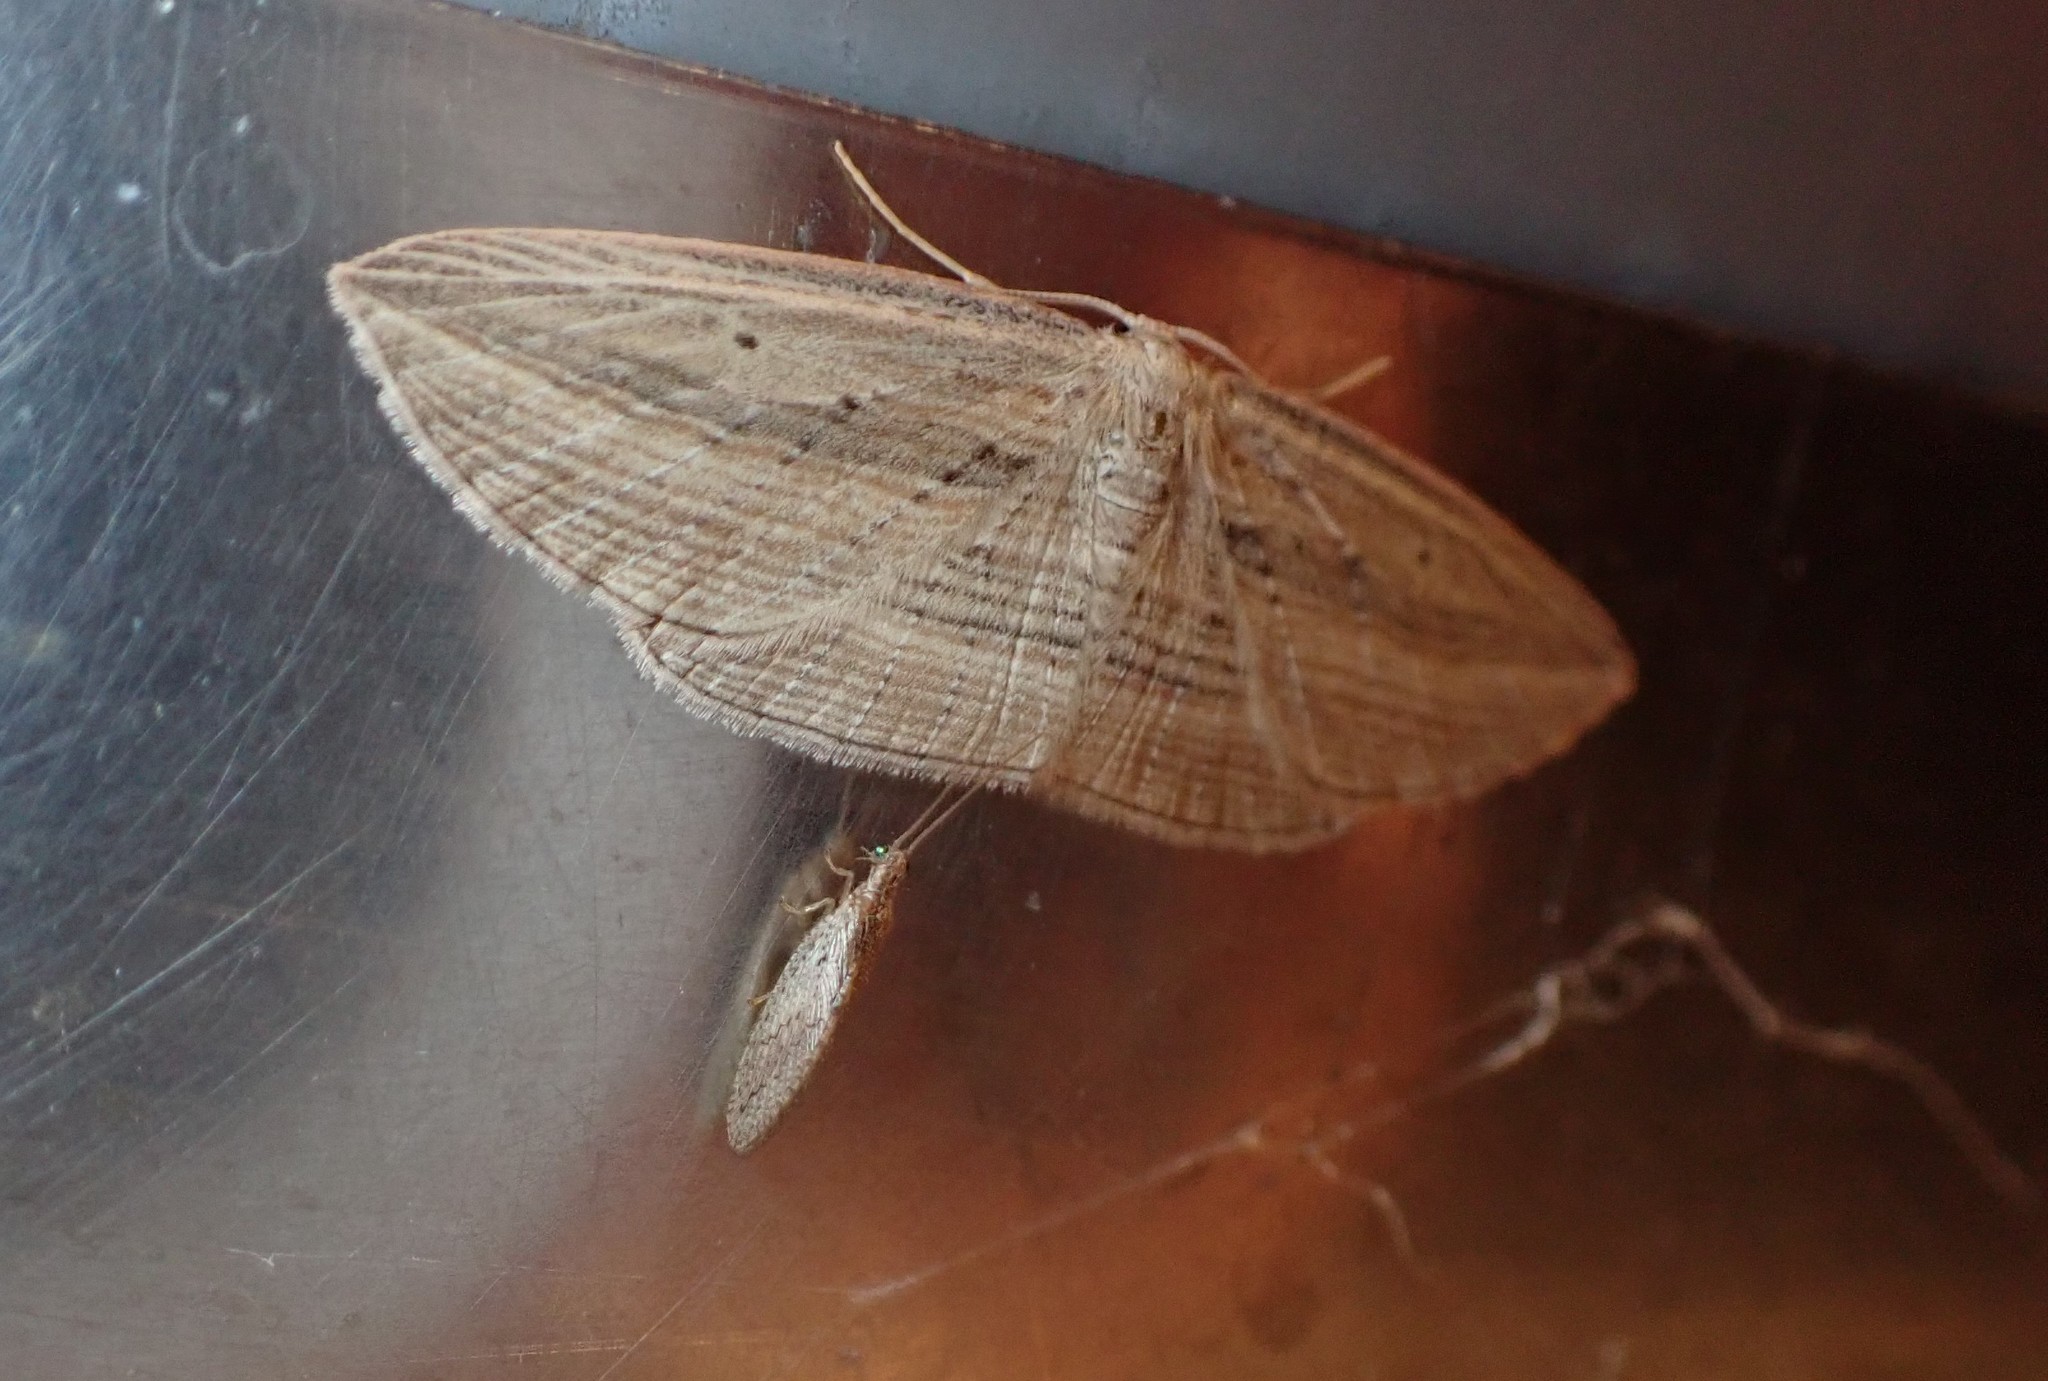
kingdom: Animalia
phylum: Arthropoda
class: Insecta
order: Neuroptera
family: Hemerobiidae
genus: Micromus
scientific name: Micromus tasmaniae
